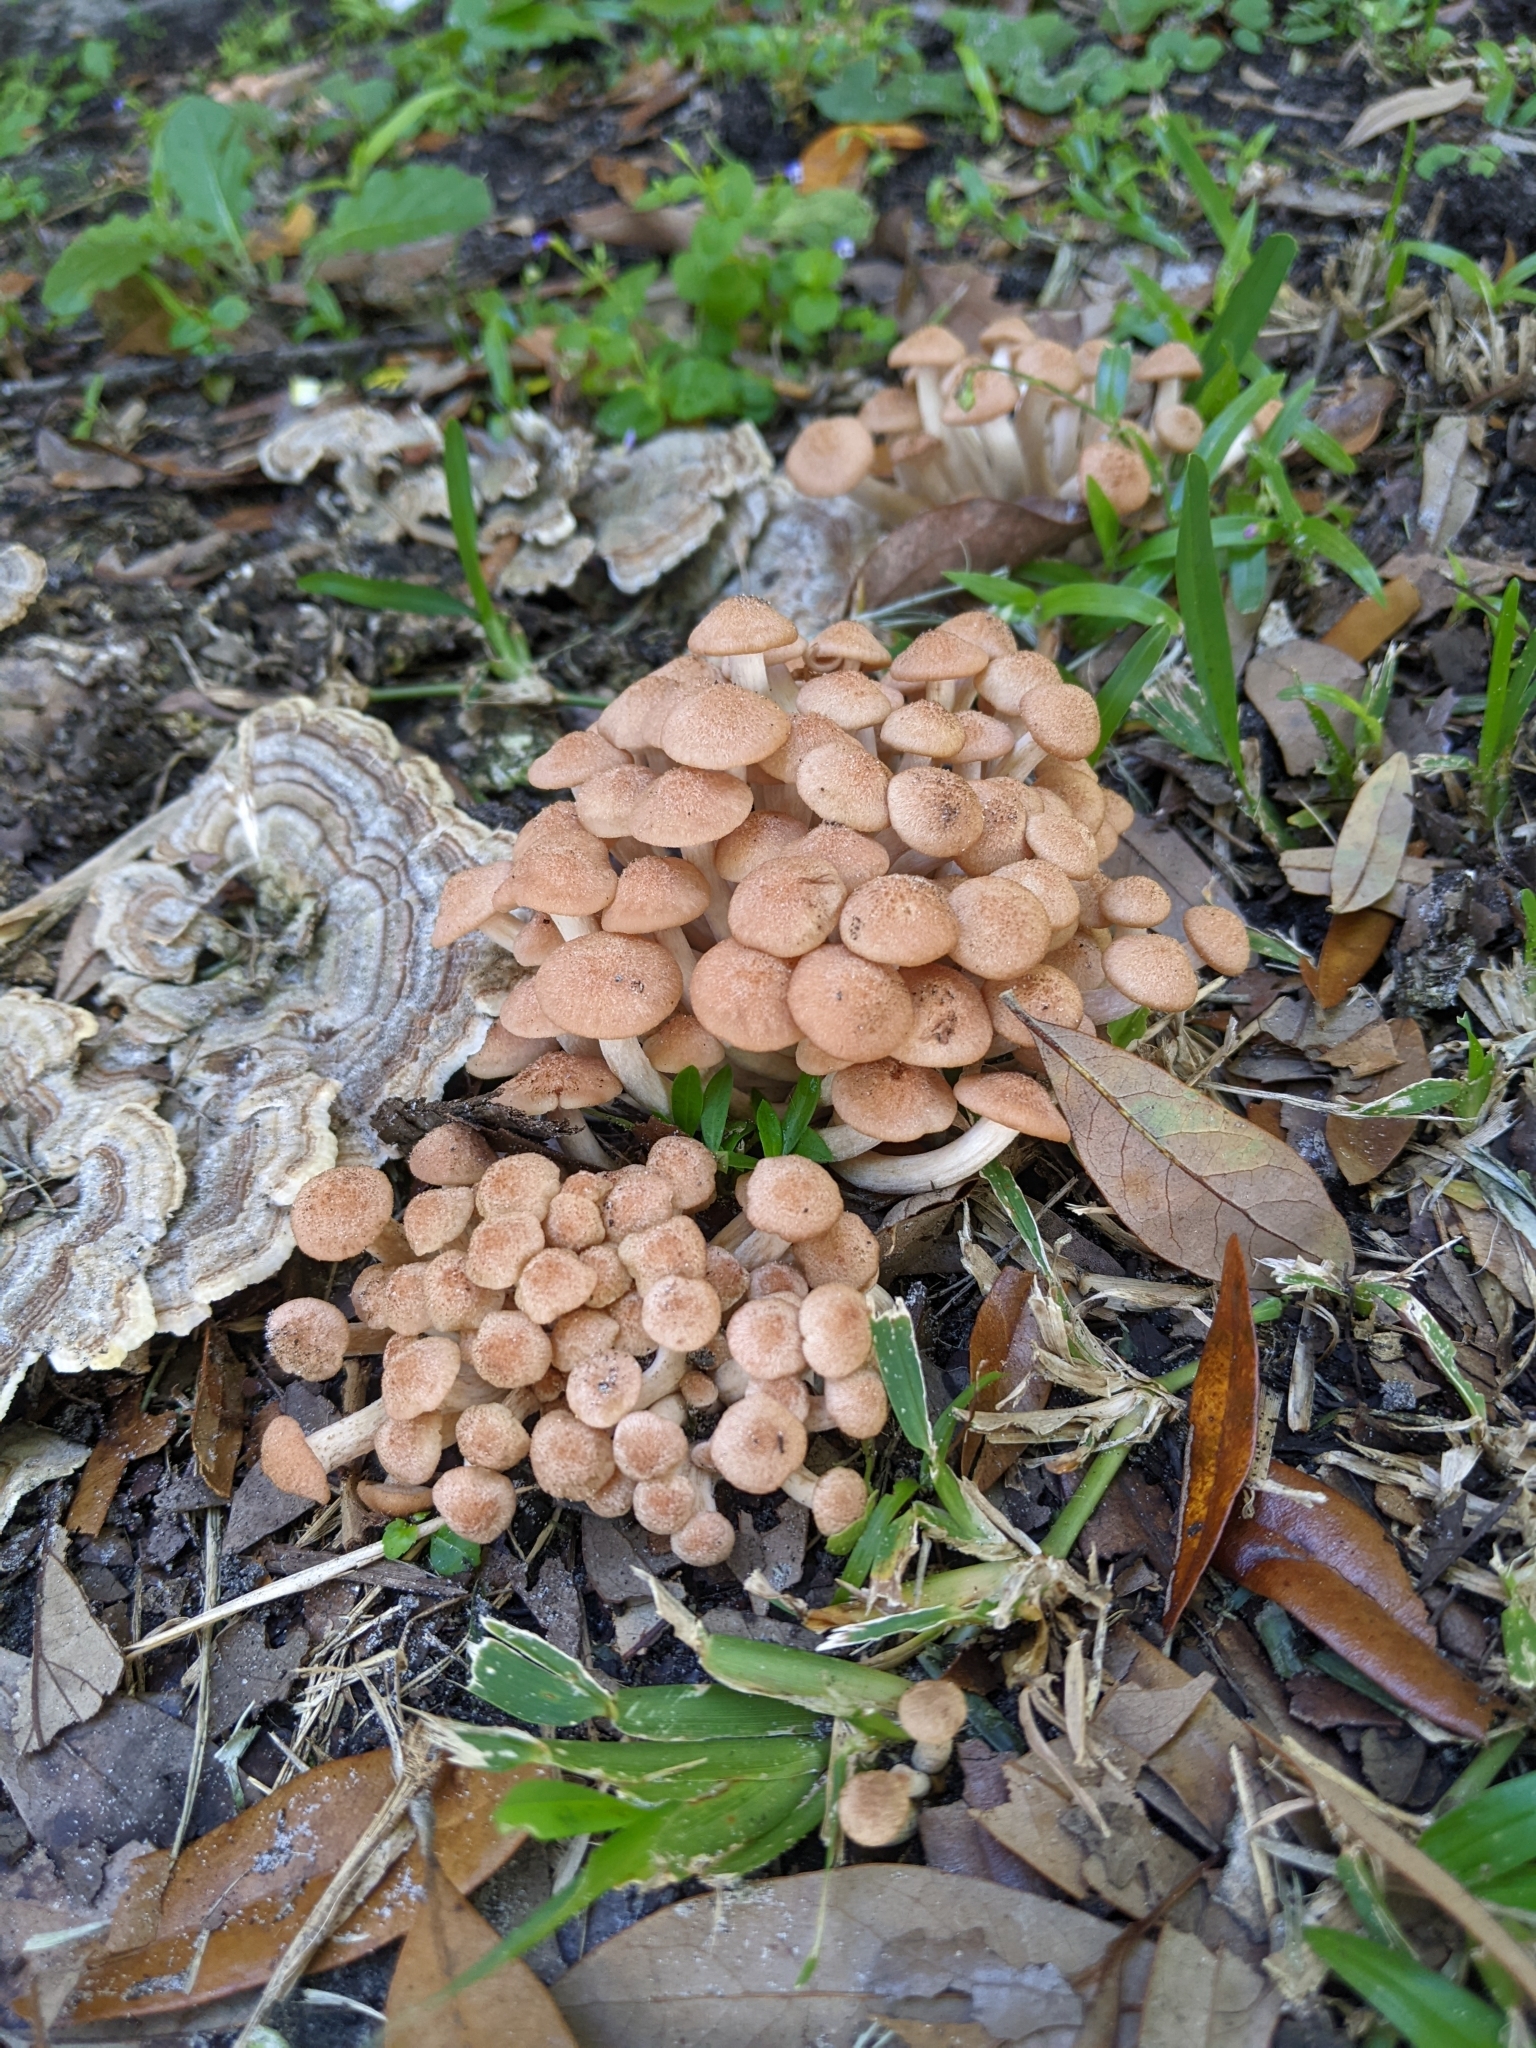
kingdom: Fungi
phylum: Basidiomycota
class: Agaricomycetes
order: Agaricales
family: Physalacriaceae
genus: Desarmillaria
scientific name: Desarmillaria caespitosa
